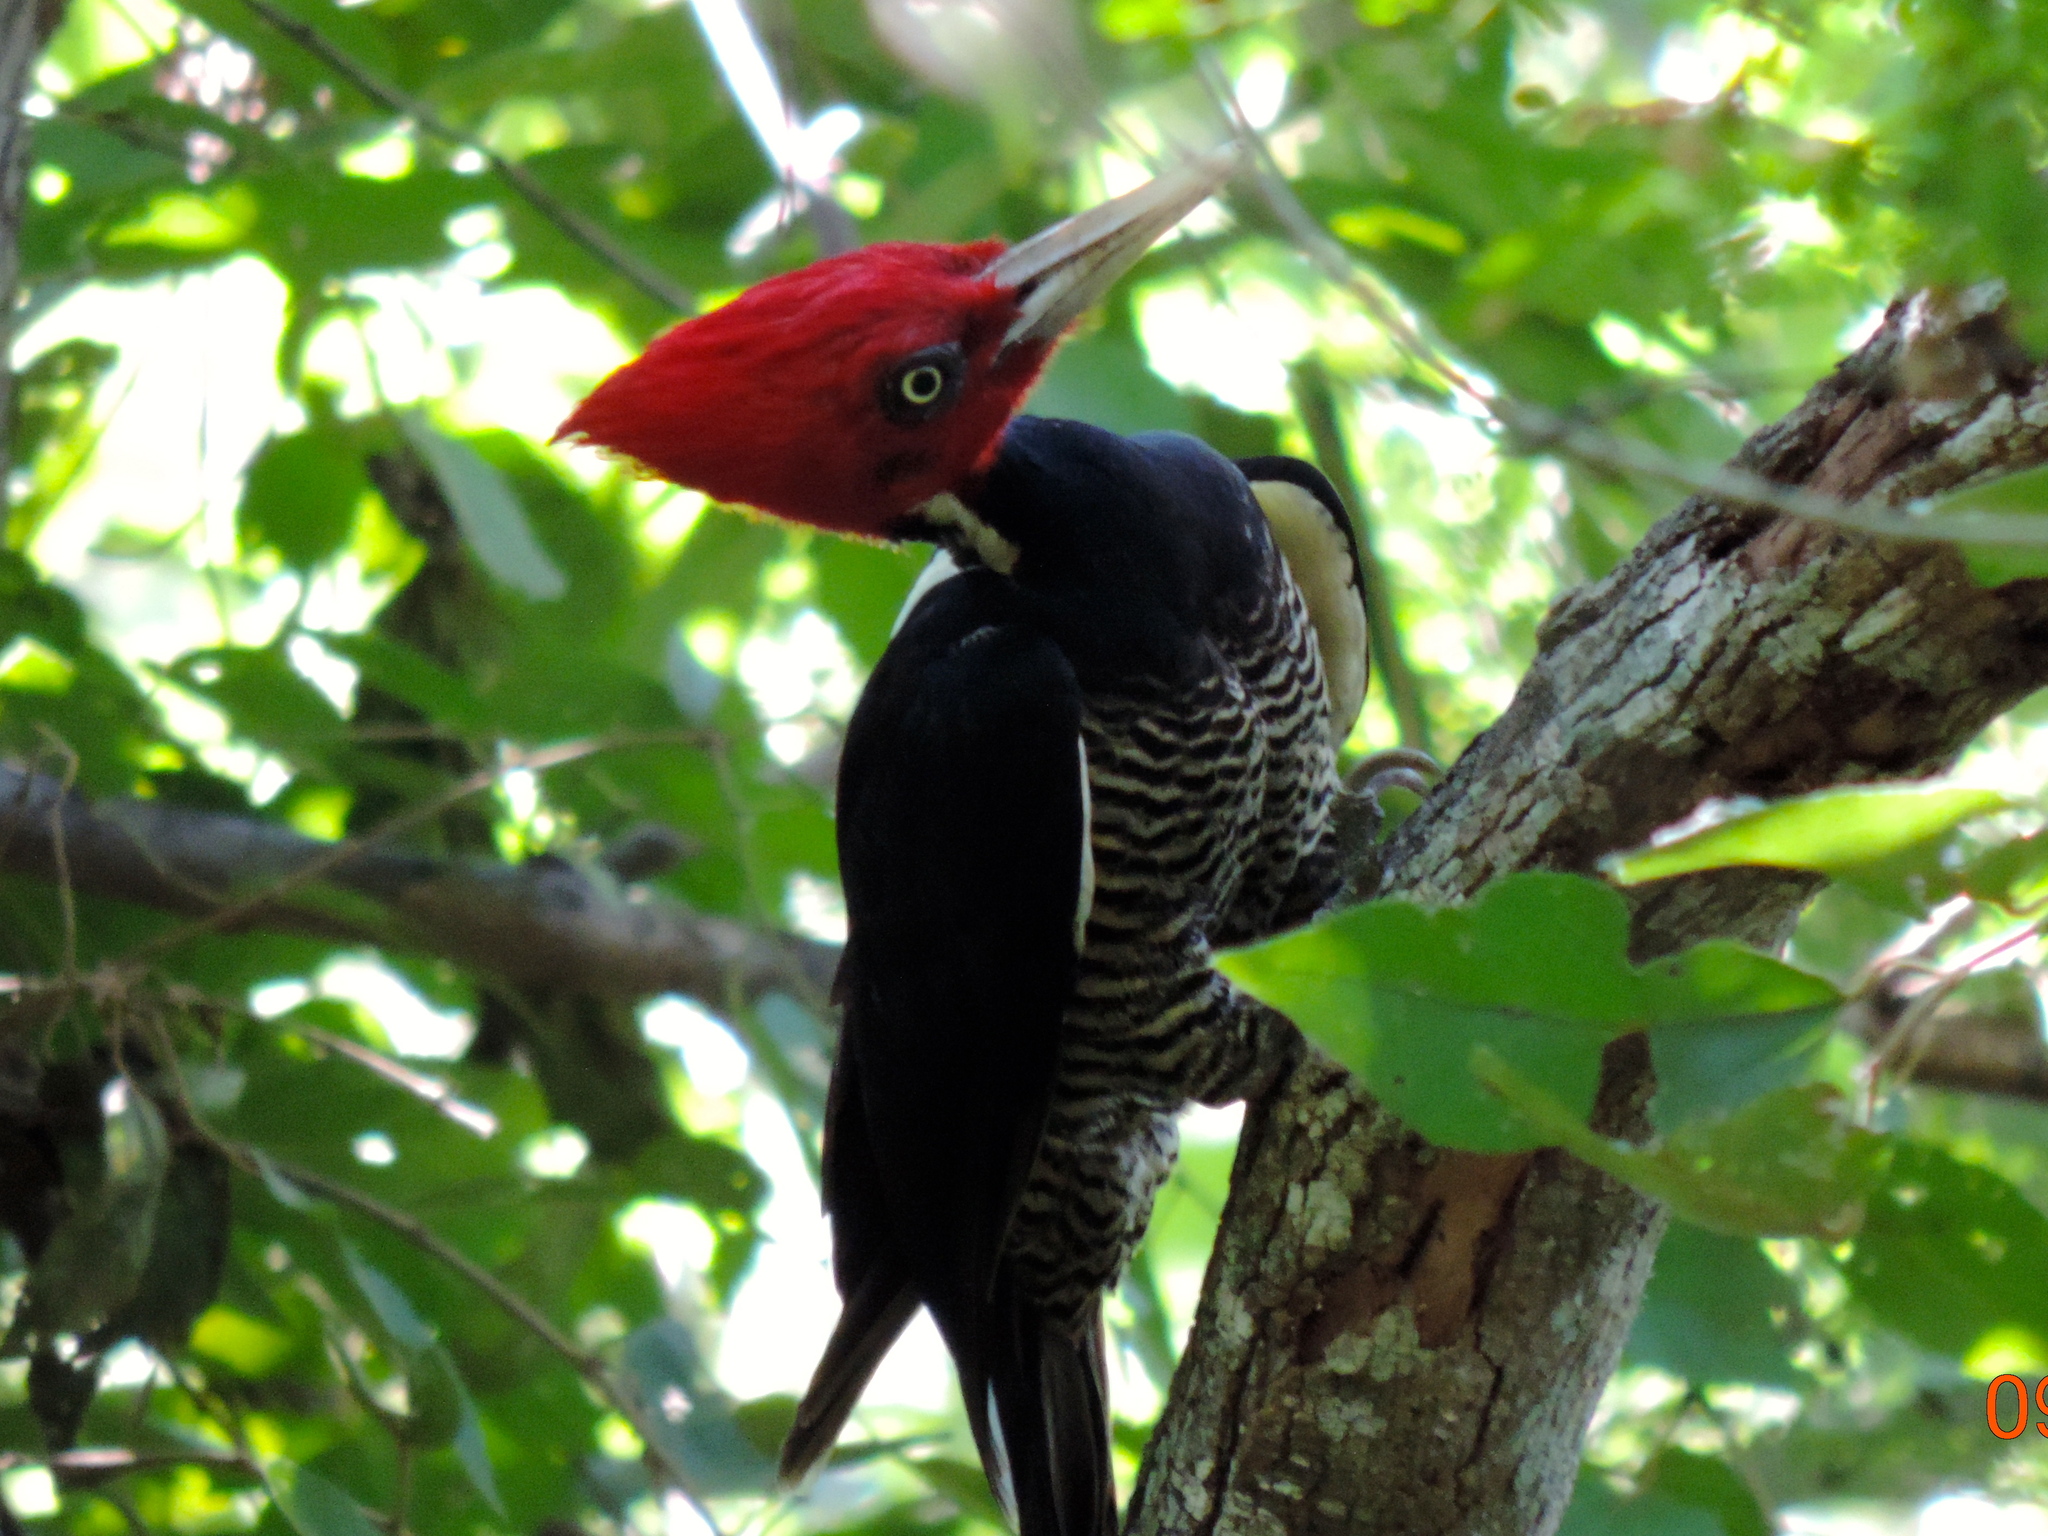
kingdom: Animalia
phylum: Chordata
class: Aves
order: Piciformes
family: Picidae
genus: Campephilus
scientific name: Campephilus guatemalensis
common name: Pale-billed woodpecker
